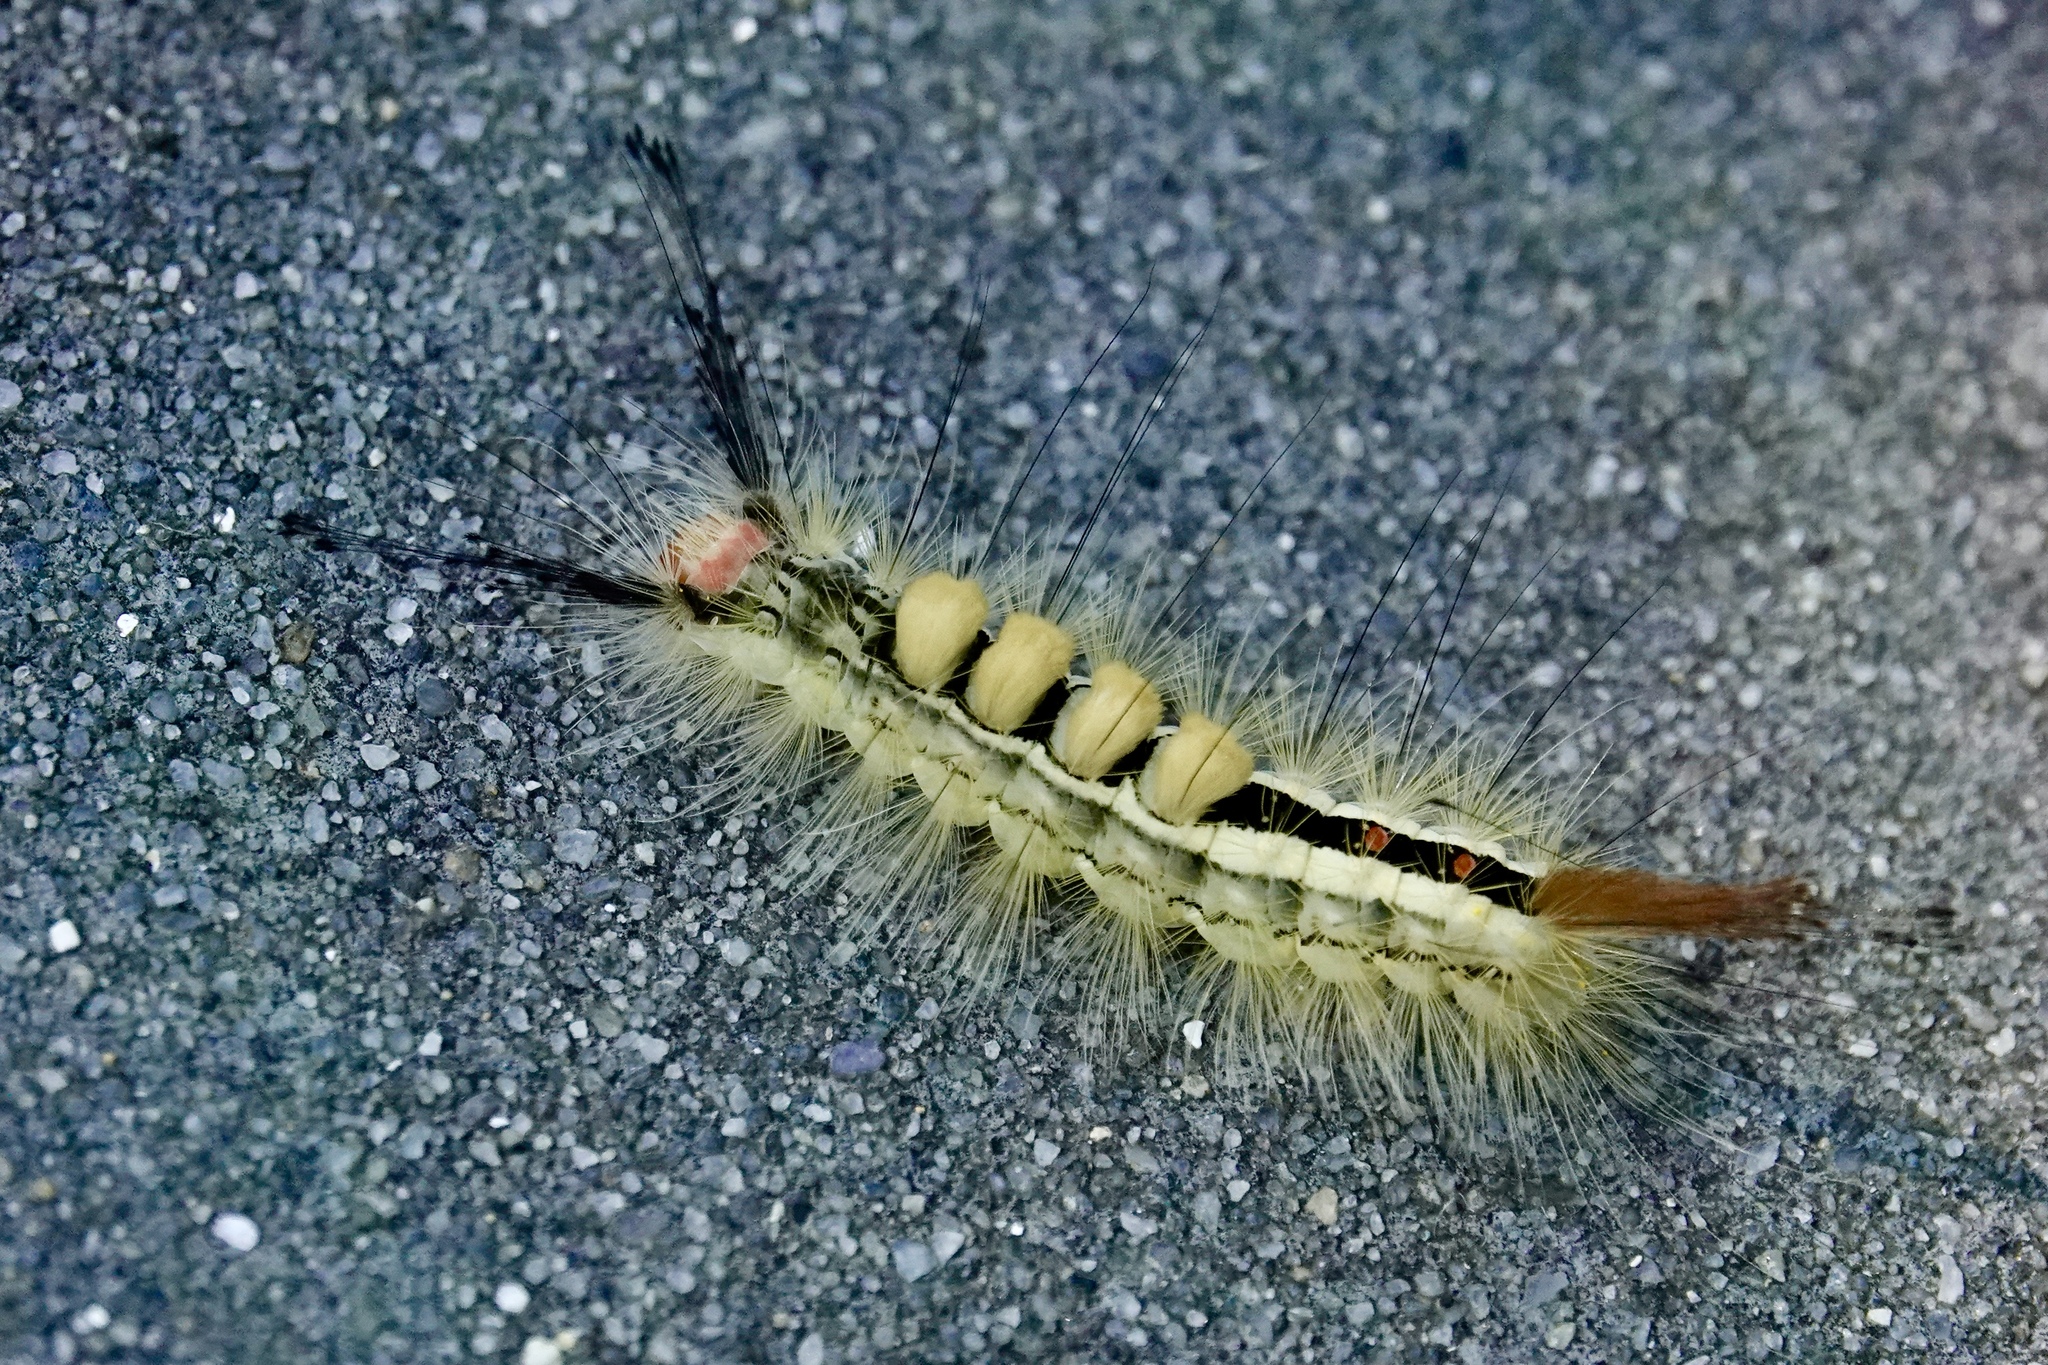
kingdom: Animalia
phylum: Arthropoda
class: Insecta
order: Lepidoptera
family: Erebidae
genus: Orgyia
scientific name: Orgyia leucostigma
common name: White-marked tussock moth
